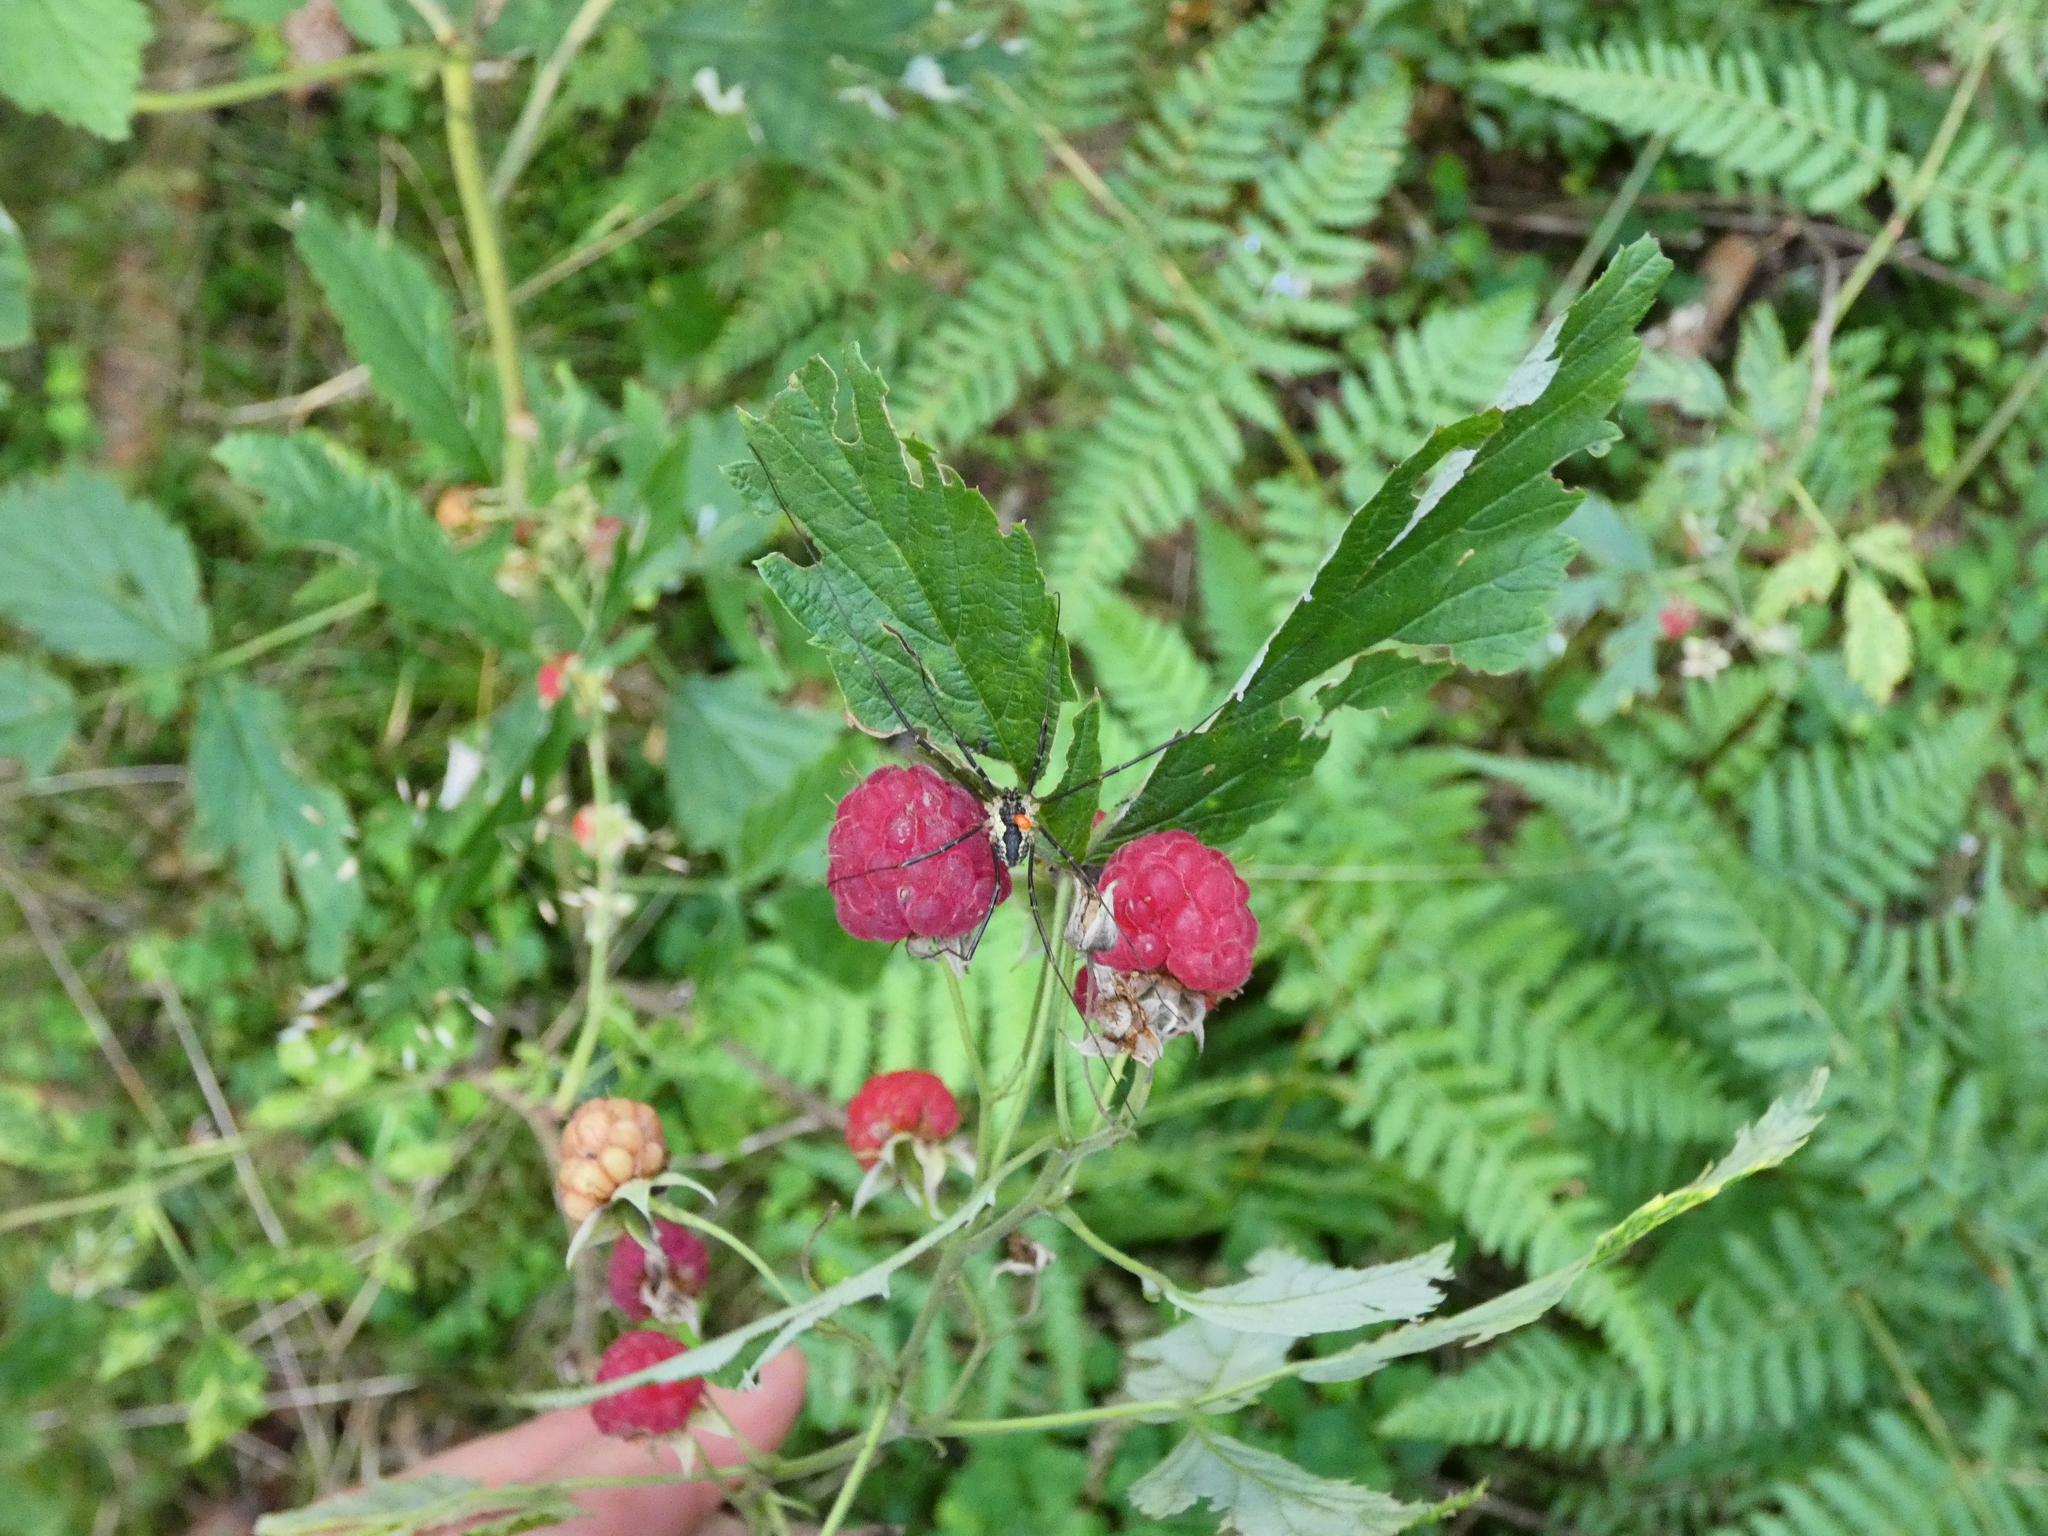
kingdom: Plantae
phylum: Tracheophyta
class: Magnoliopsida
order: Rosales
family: Rosaceae
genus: Rubus
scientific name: Rubus idaeus
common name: Raspberry
